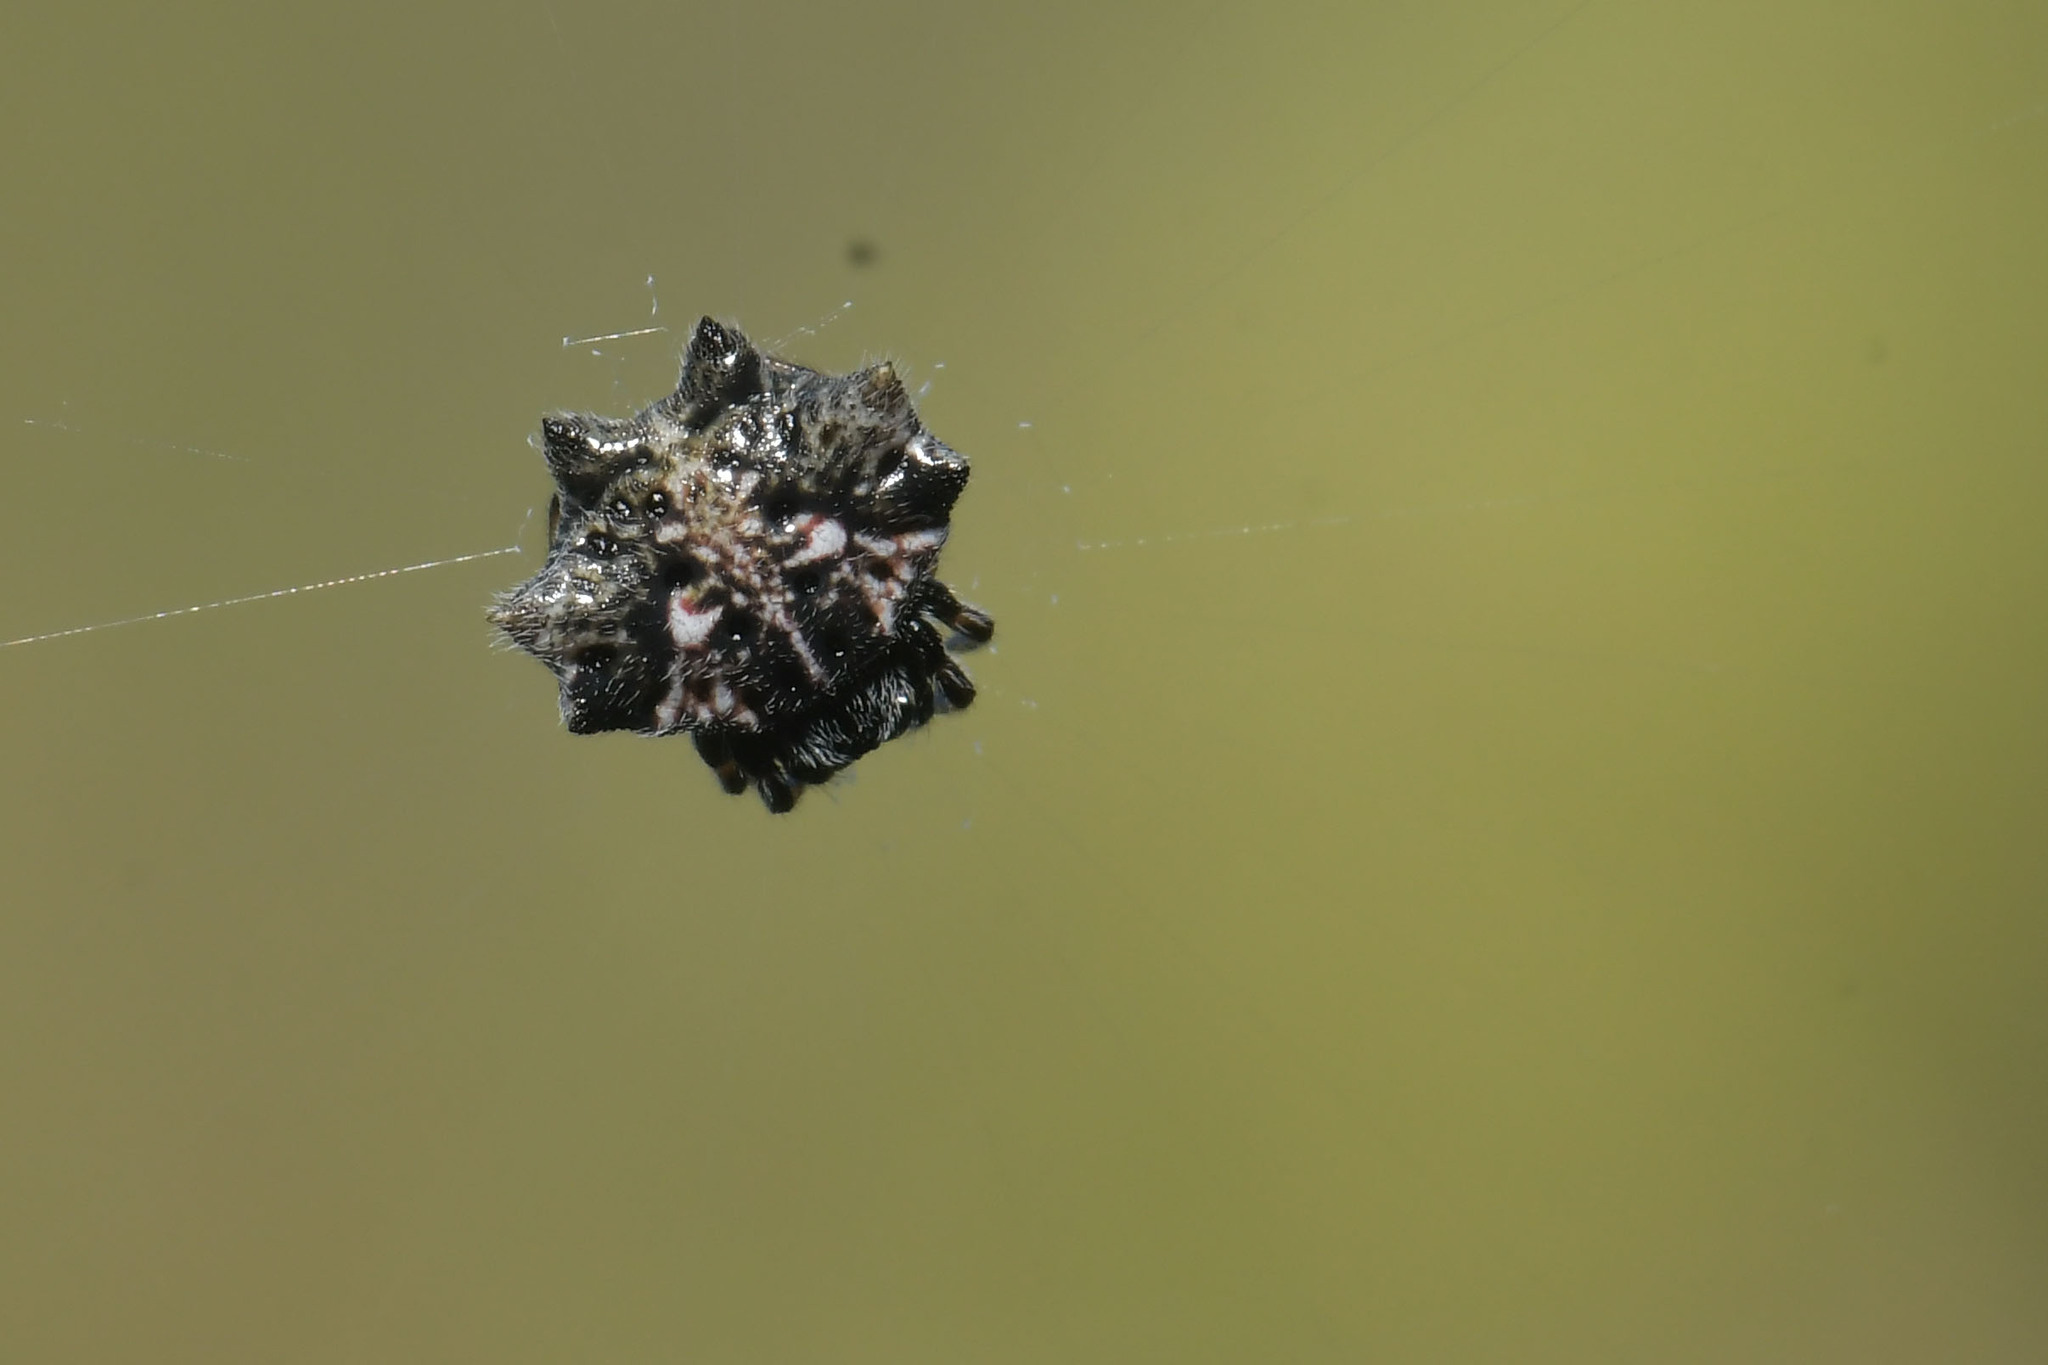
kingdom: Animalia
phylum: Arthropoda
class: Arachnida
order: Araneae
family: Araneidae
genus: Thelacantha
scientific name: Thelacantha brevispina
